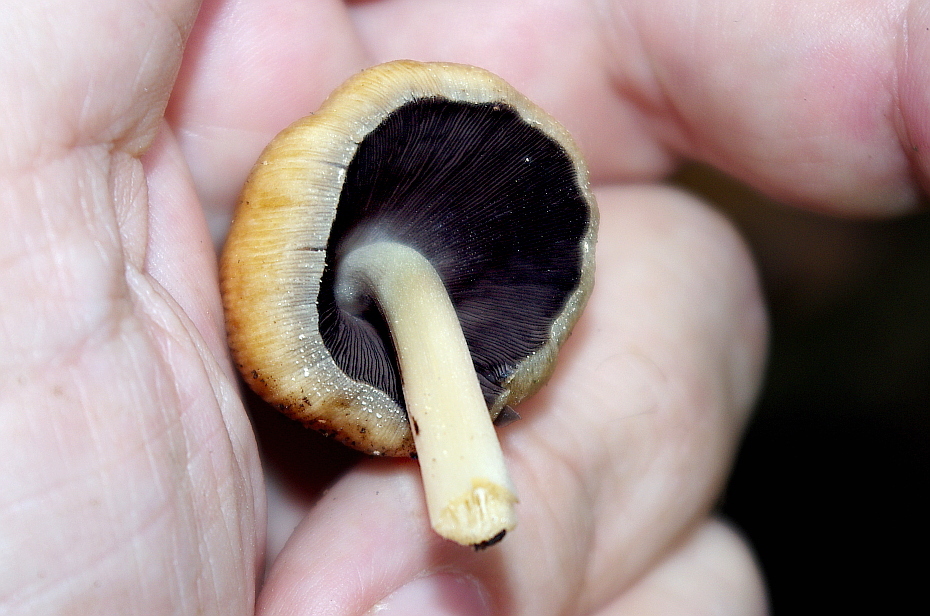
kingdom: Fungi
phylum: Basidiomycota
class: Agaricomycetes
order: Agaricales
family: Psathyrellaceae
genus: Coprinellus
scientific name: Coprinellus micaceus
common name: Glistening ink-cap
